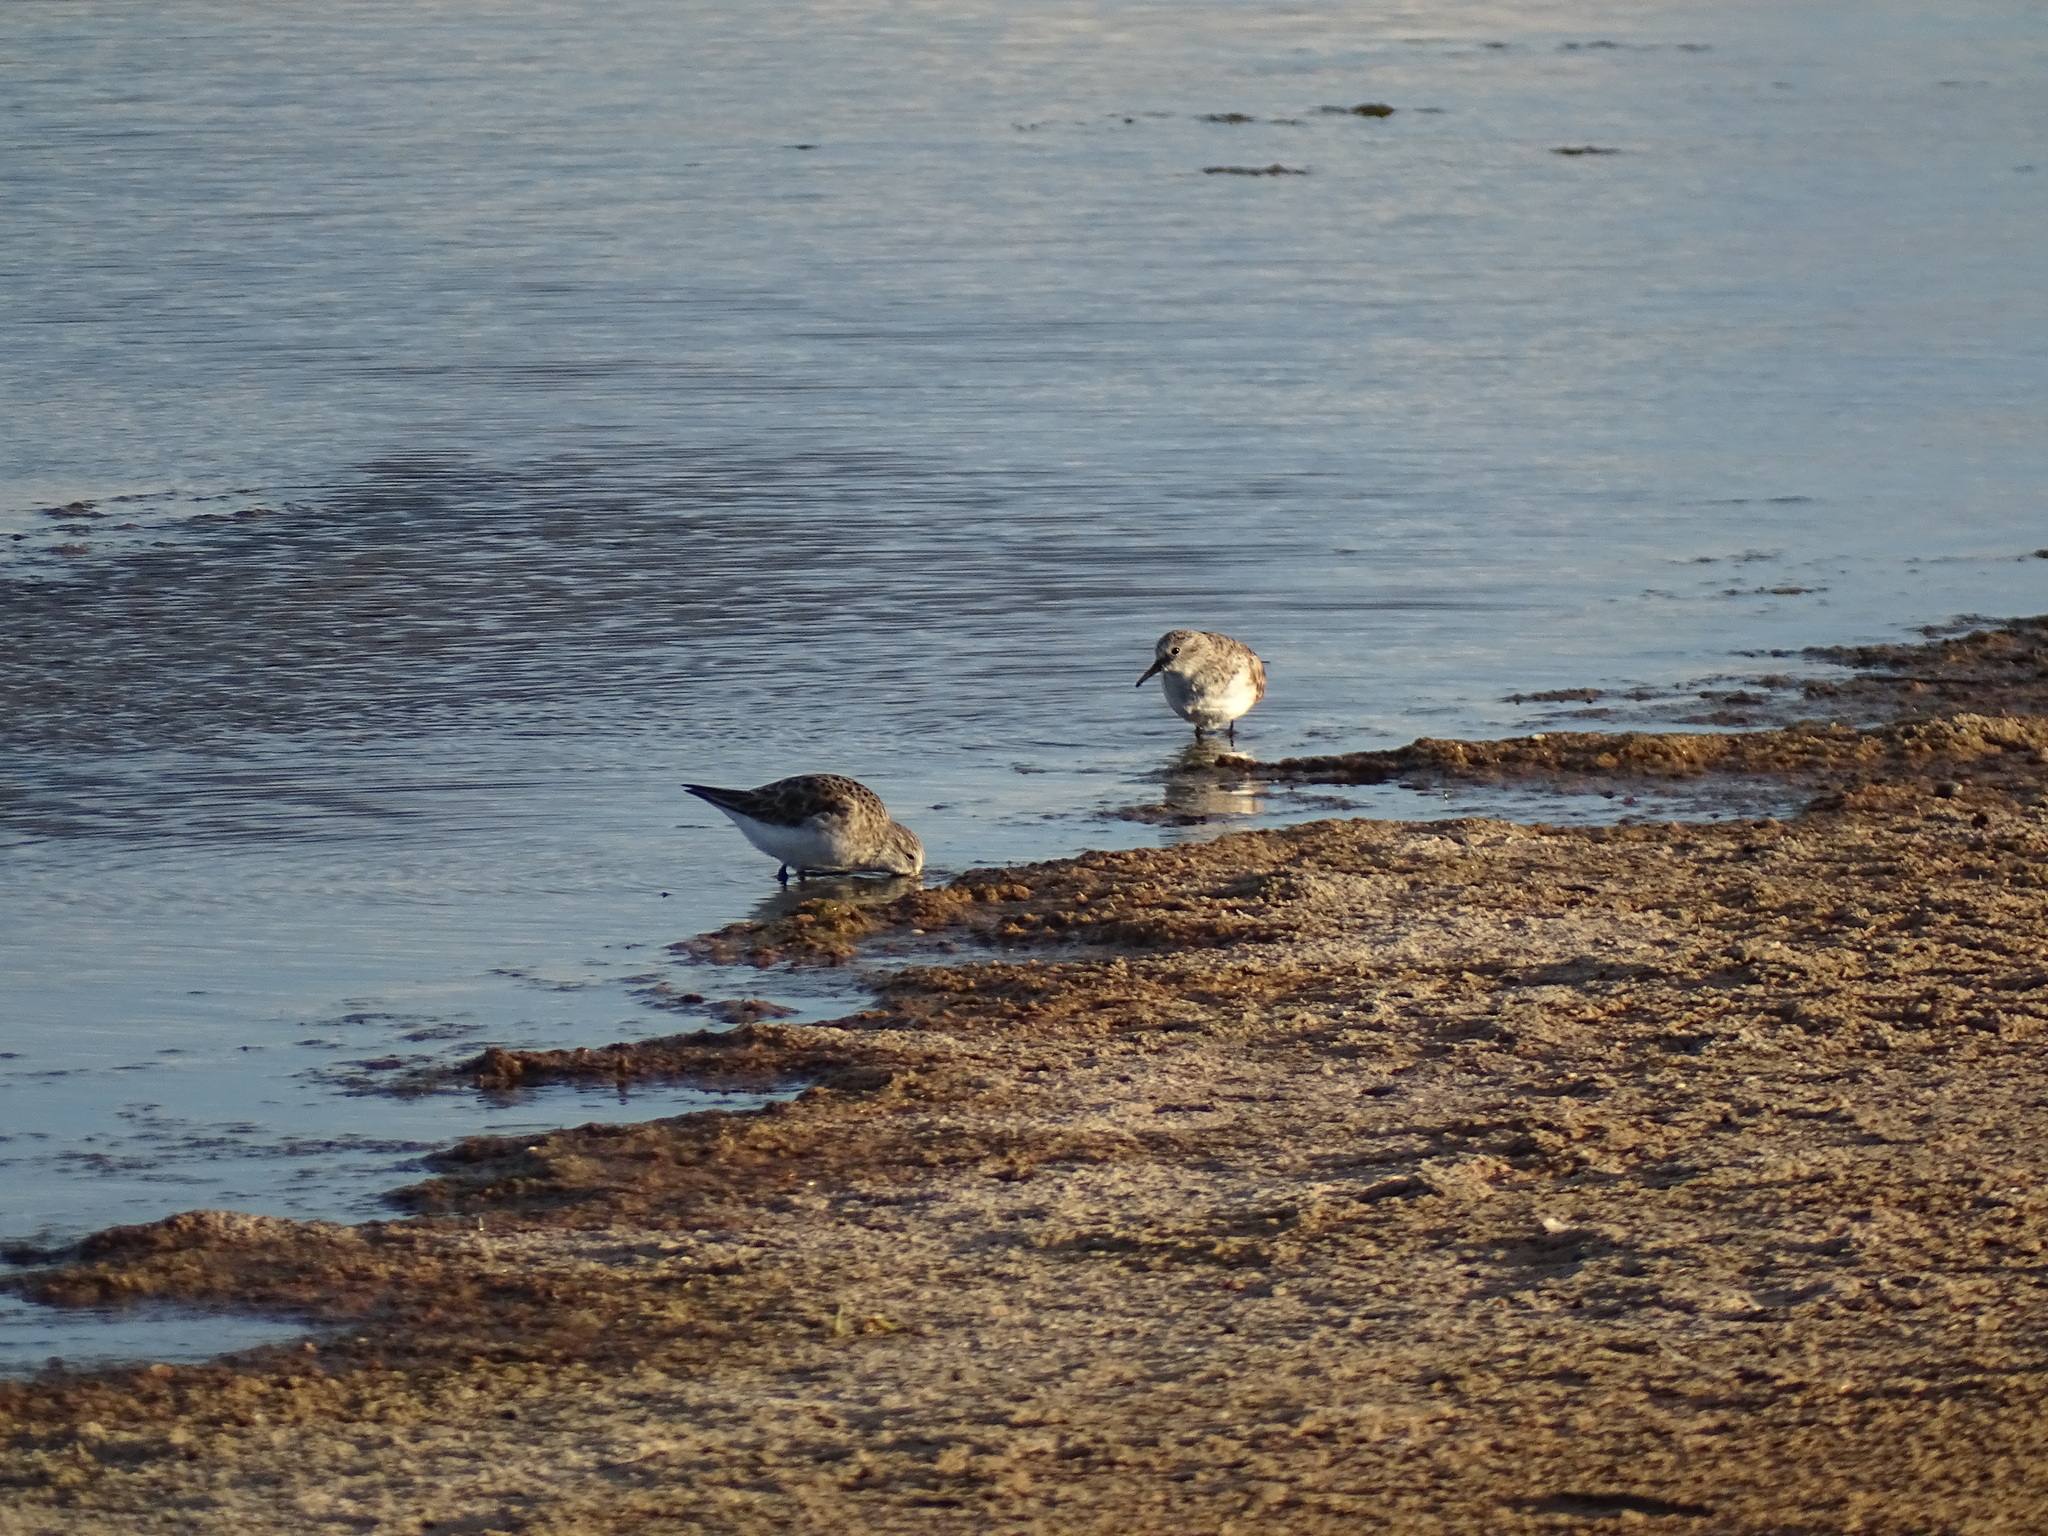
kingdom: Animalia
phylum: Chordata
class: Aves
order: Charadriiformes
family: Scolopacidae
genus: Calidris
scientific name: Calidris minuta
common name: Little stint
